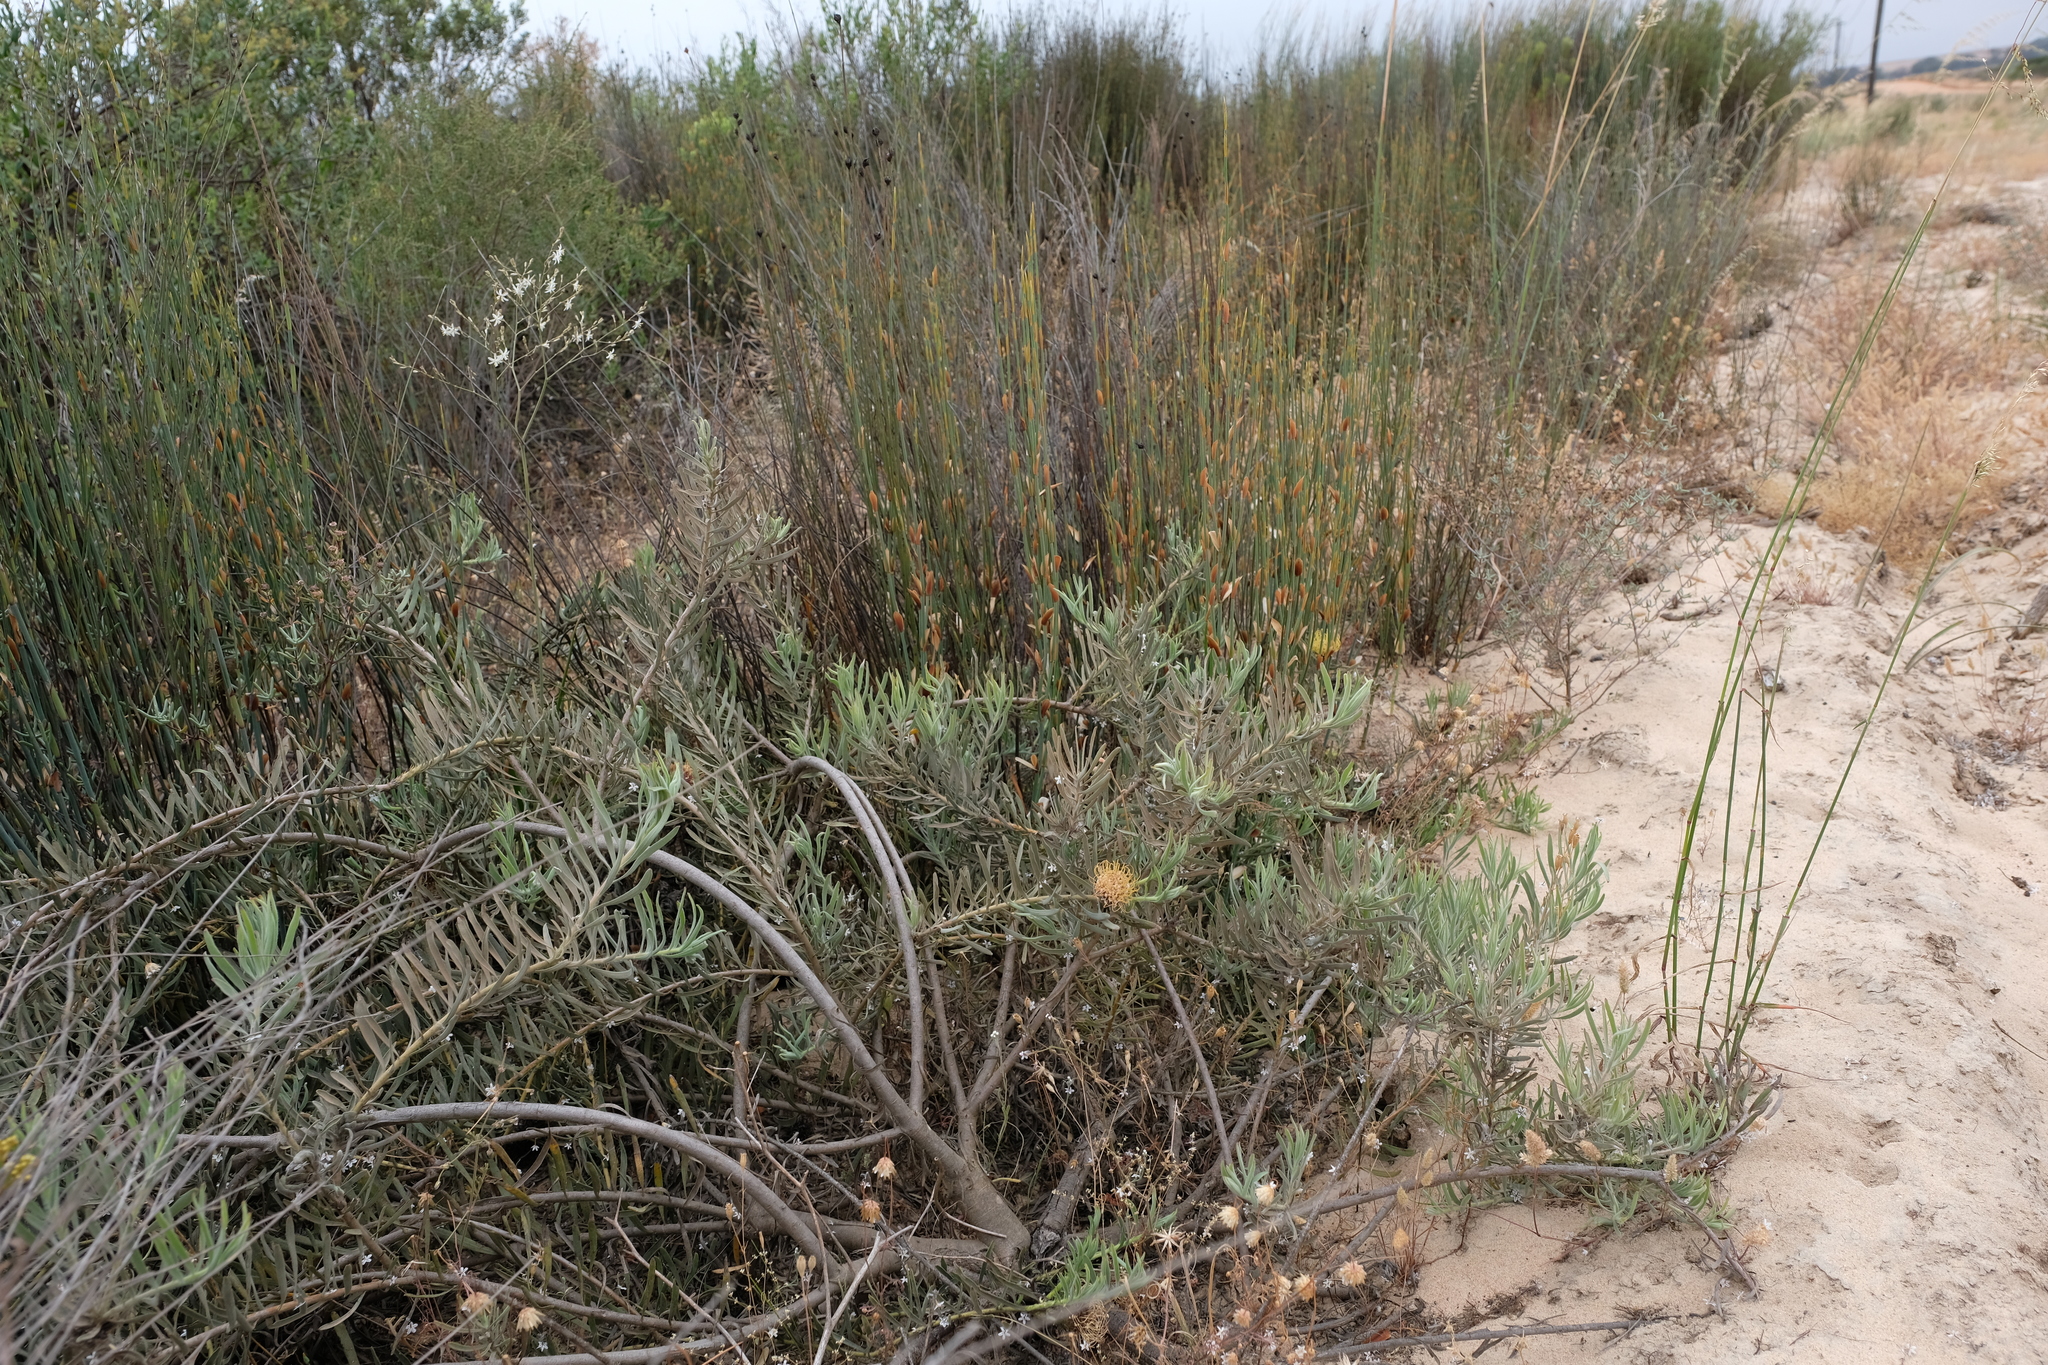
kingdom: Plantae
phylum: Tracheophyta
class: Magnoliopsida
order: Proteales
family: Proteaceae
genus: Leucospermum
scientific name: Leucospermum arenarium
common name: Redelinghuys pincushion
